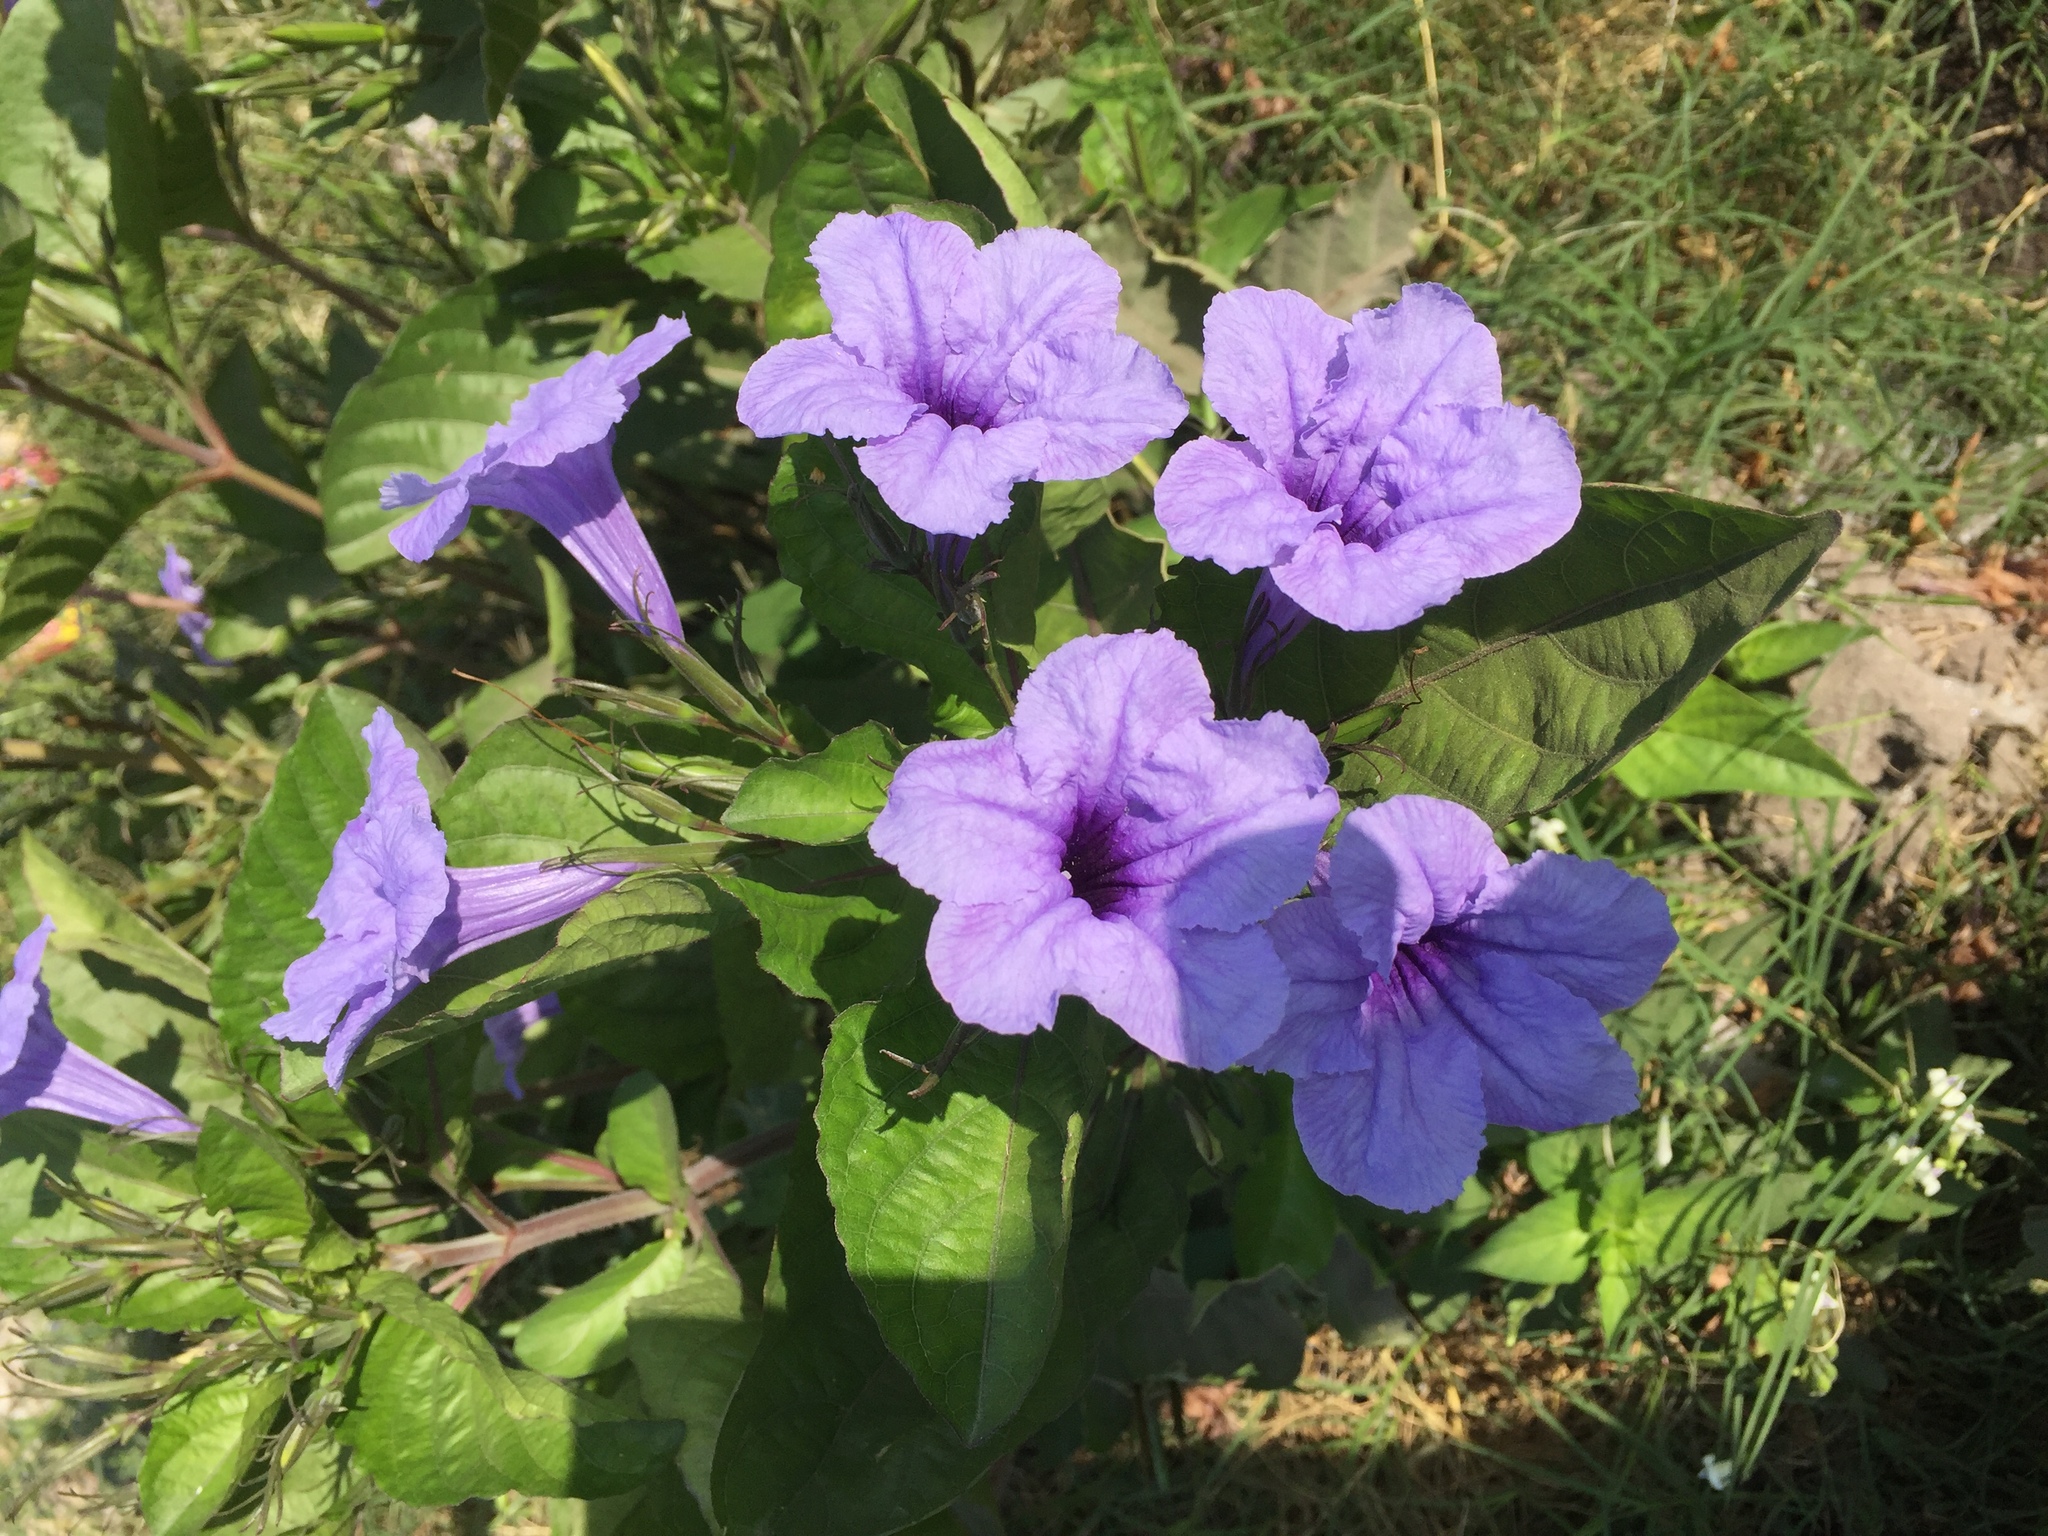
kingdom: Plantae
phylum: Tracheophyta
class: Magnoliopsida
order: Lamiales
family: Acanthaceae
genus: Ruellia
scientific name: Ruellia tuberosa
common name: Devil's bit
